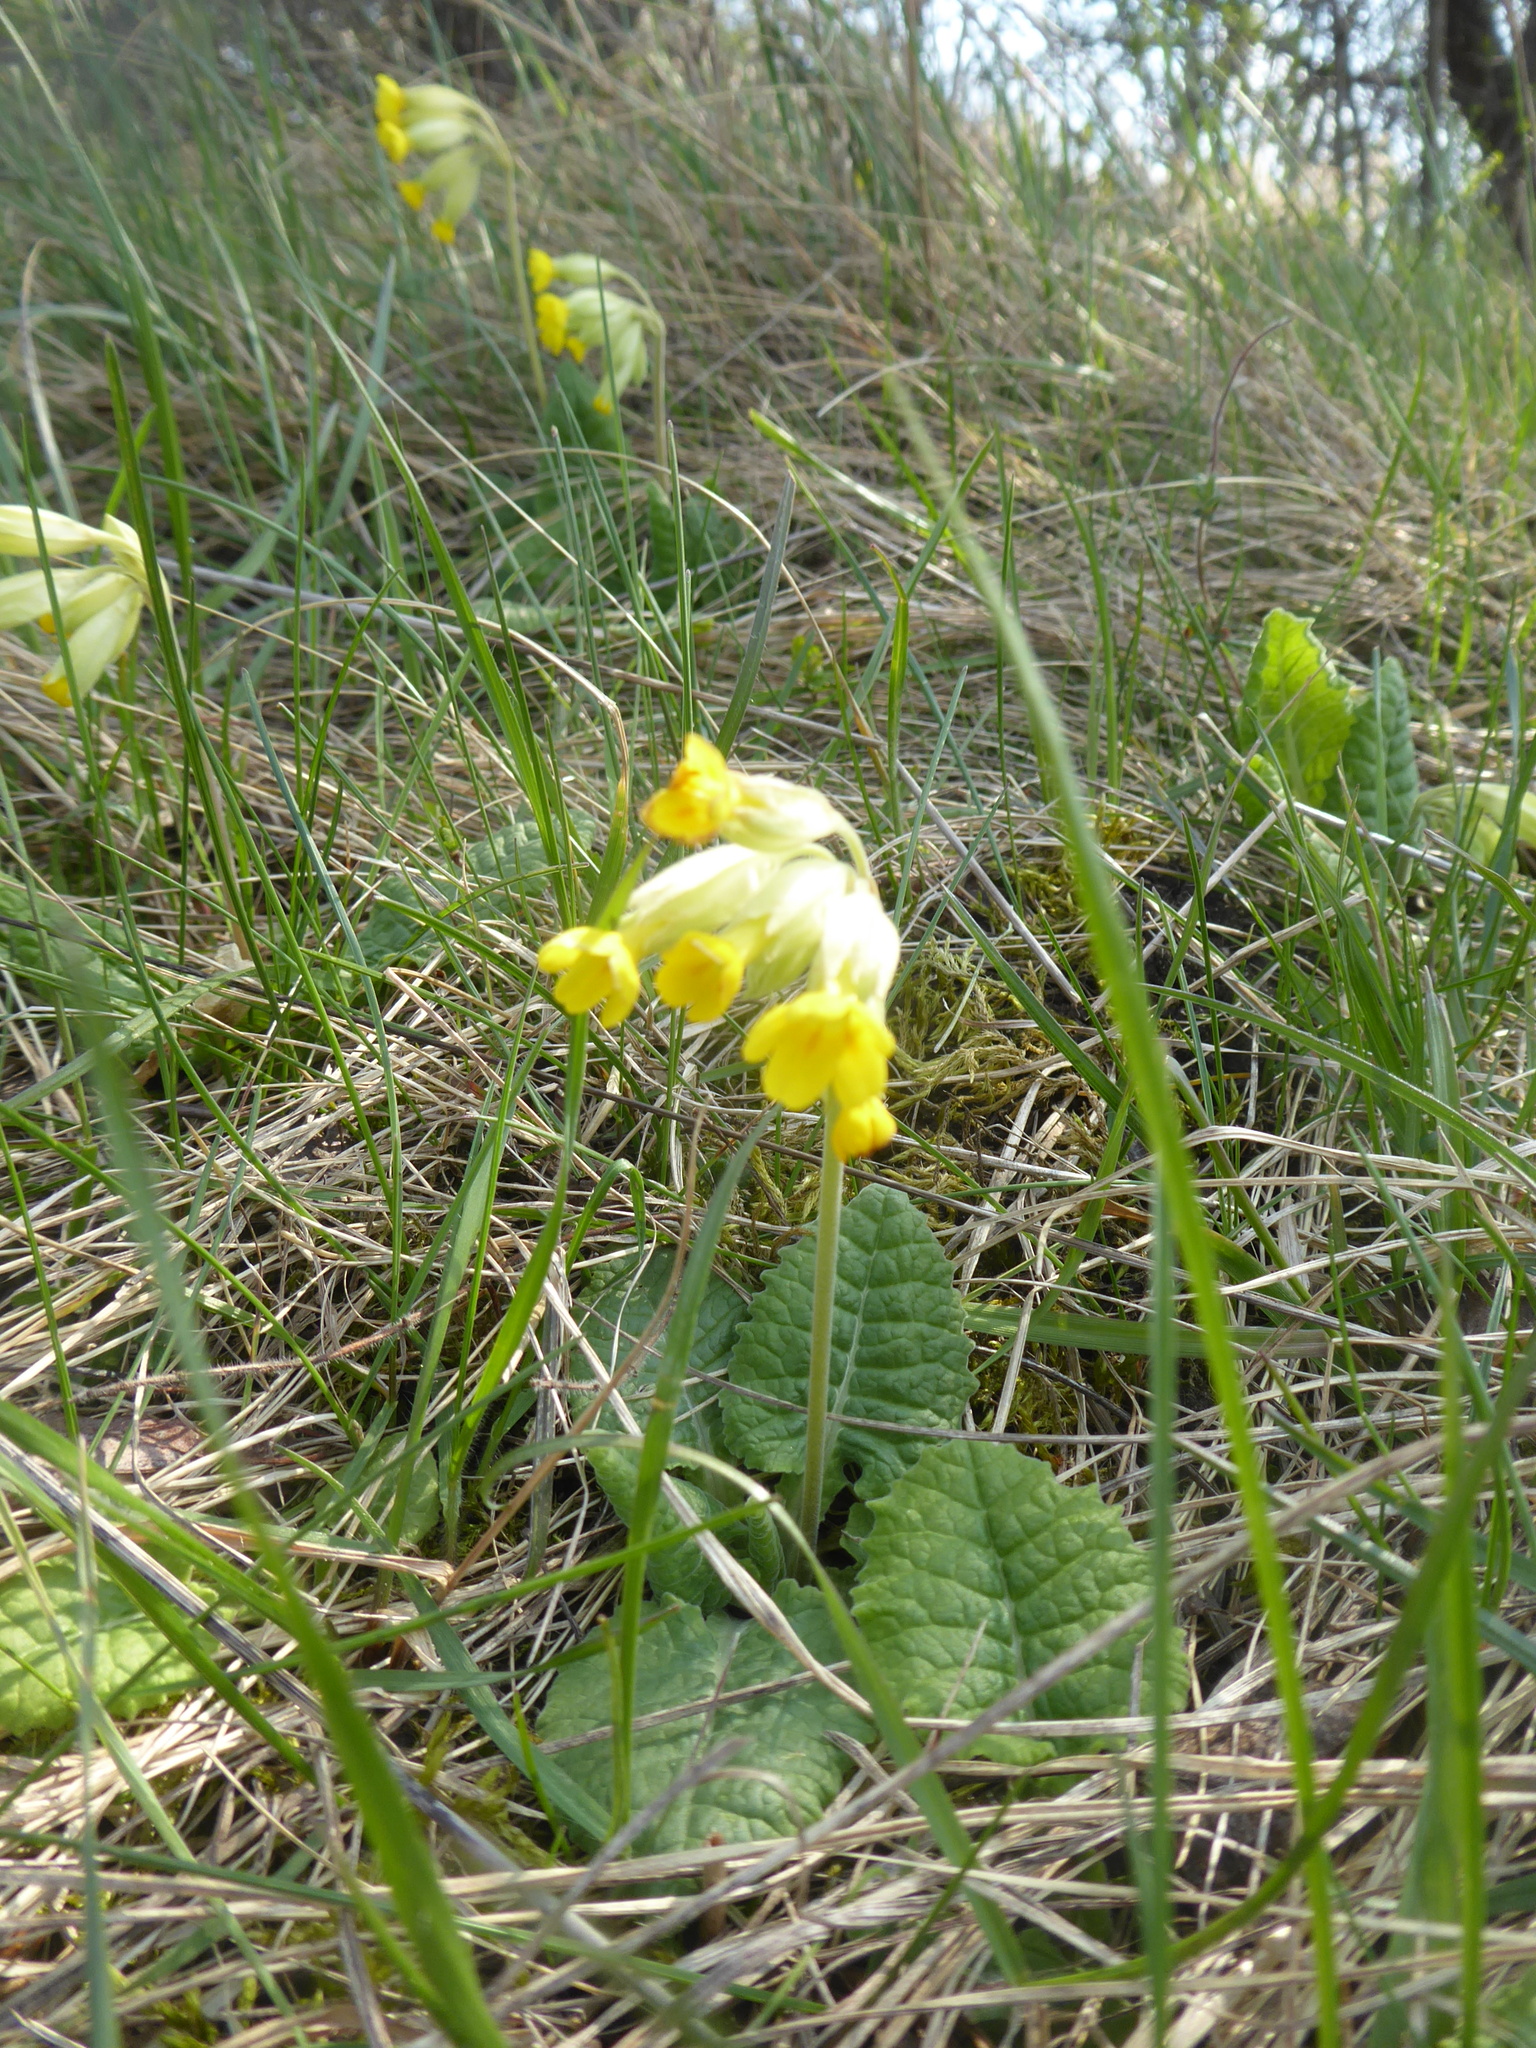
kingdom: Plantae
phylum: Tracheophyta
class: Magnoliopsida
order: Ericales
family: Primulaceae
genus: Primula
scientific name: Primula veris
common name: Cowslip
